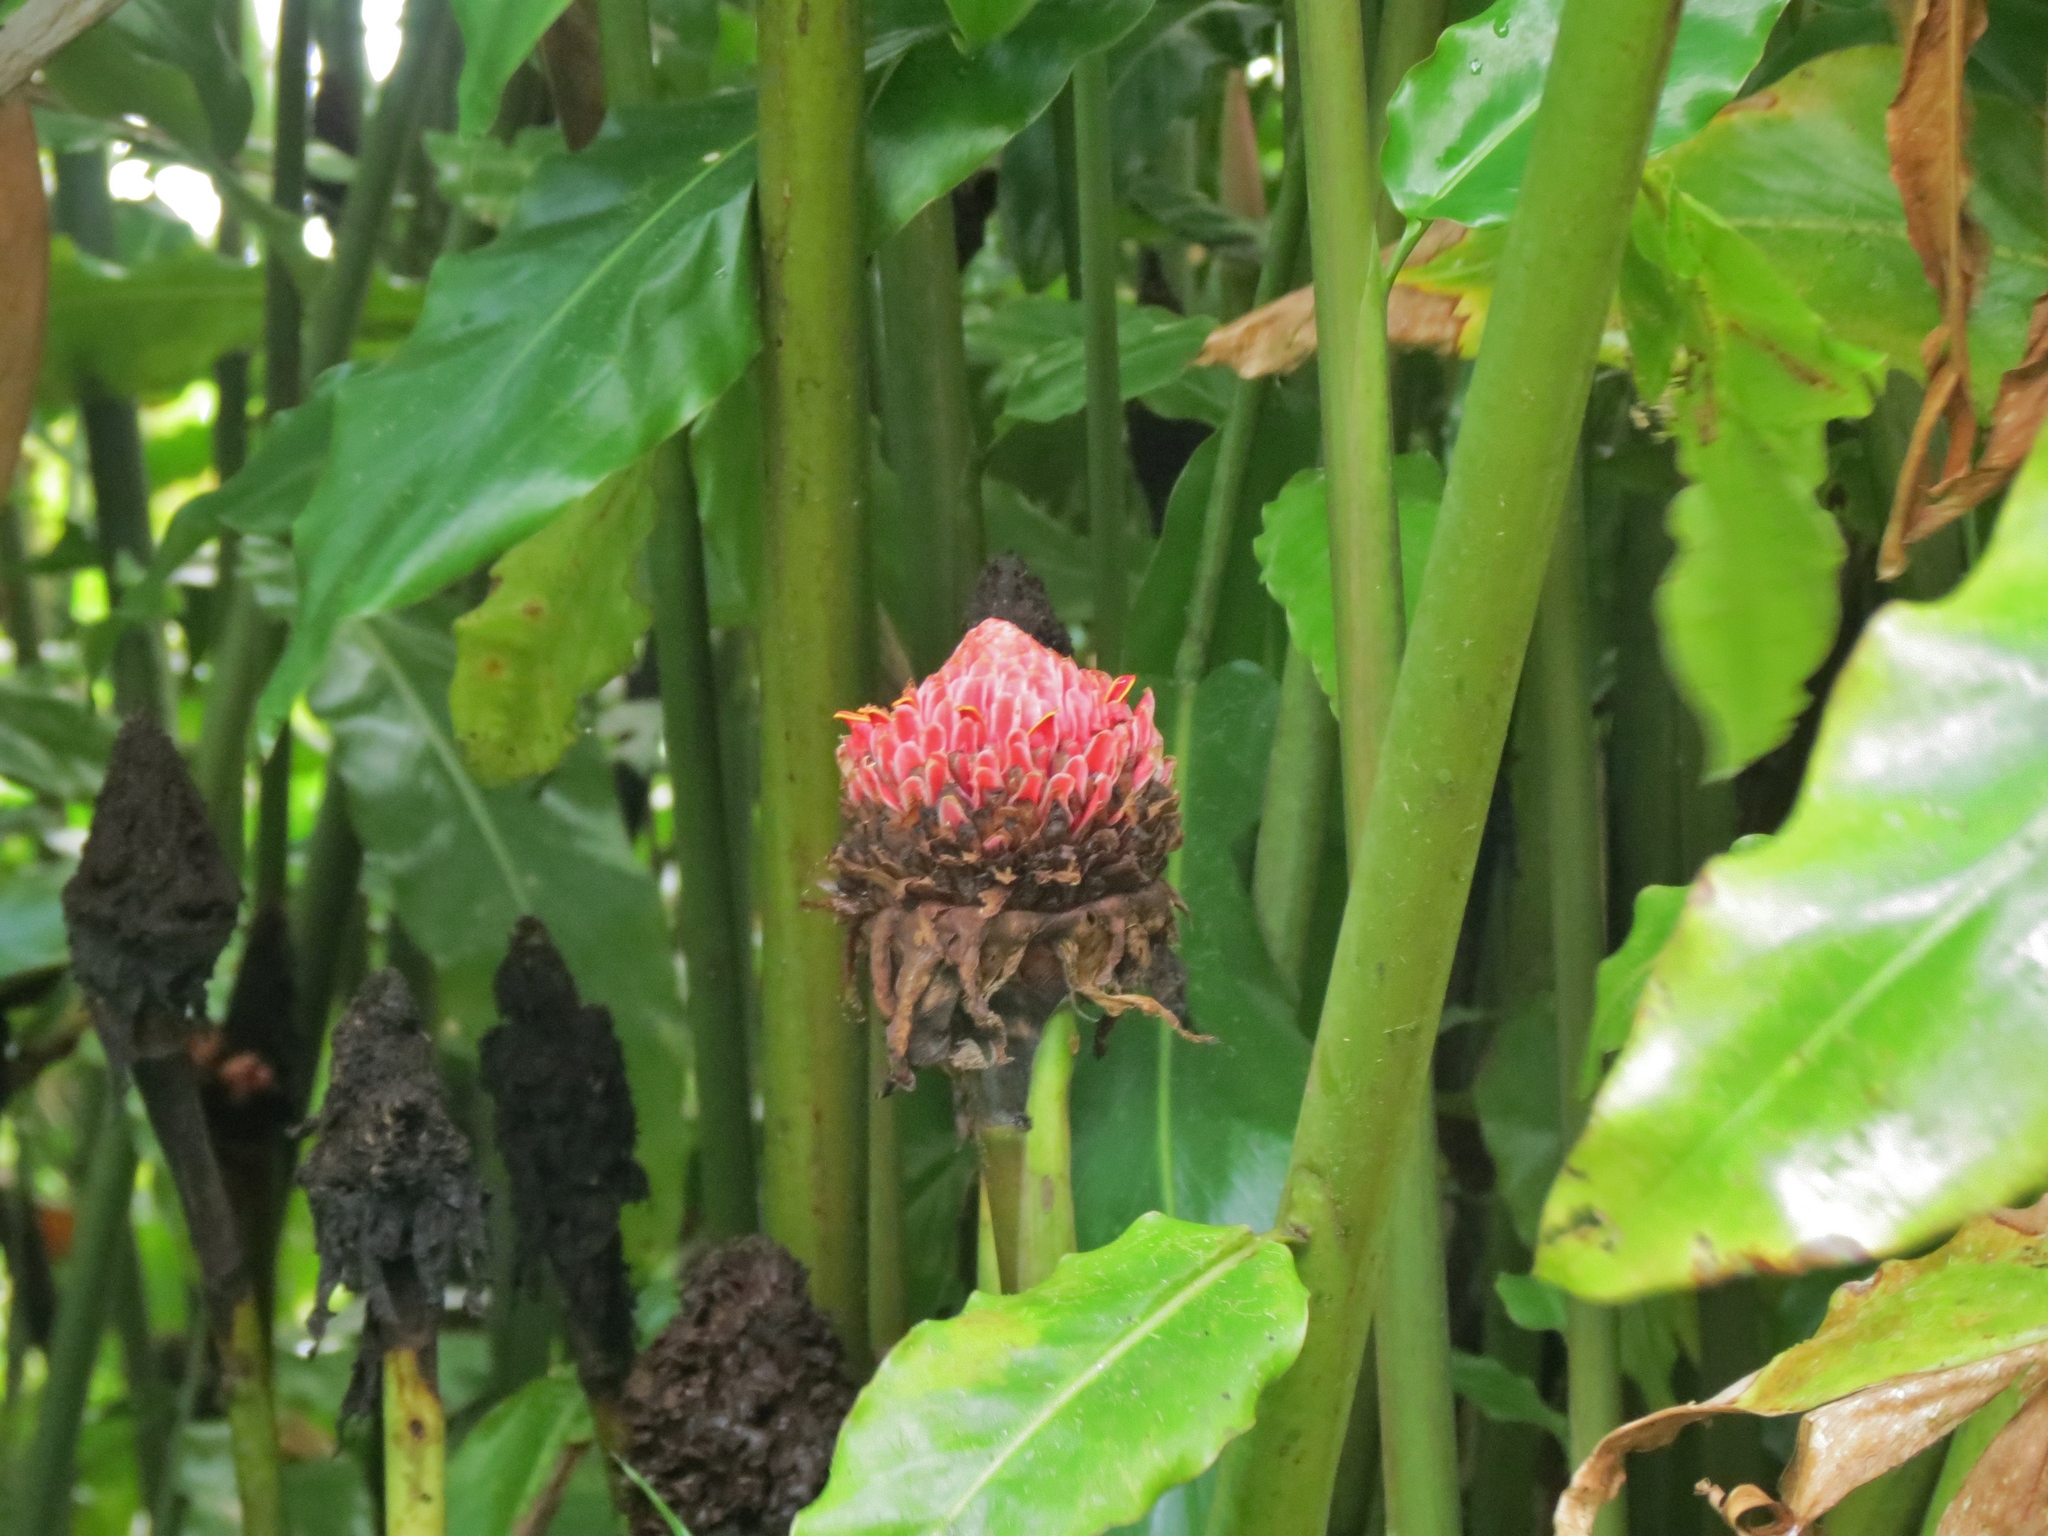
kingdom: Plantae
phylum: Tracheophyta
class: Liliopsida
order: Zingiberales
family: Zingiberaceae
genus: Etlingera
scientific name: Etlingera elatior
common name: Philippine waxflower
